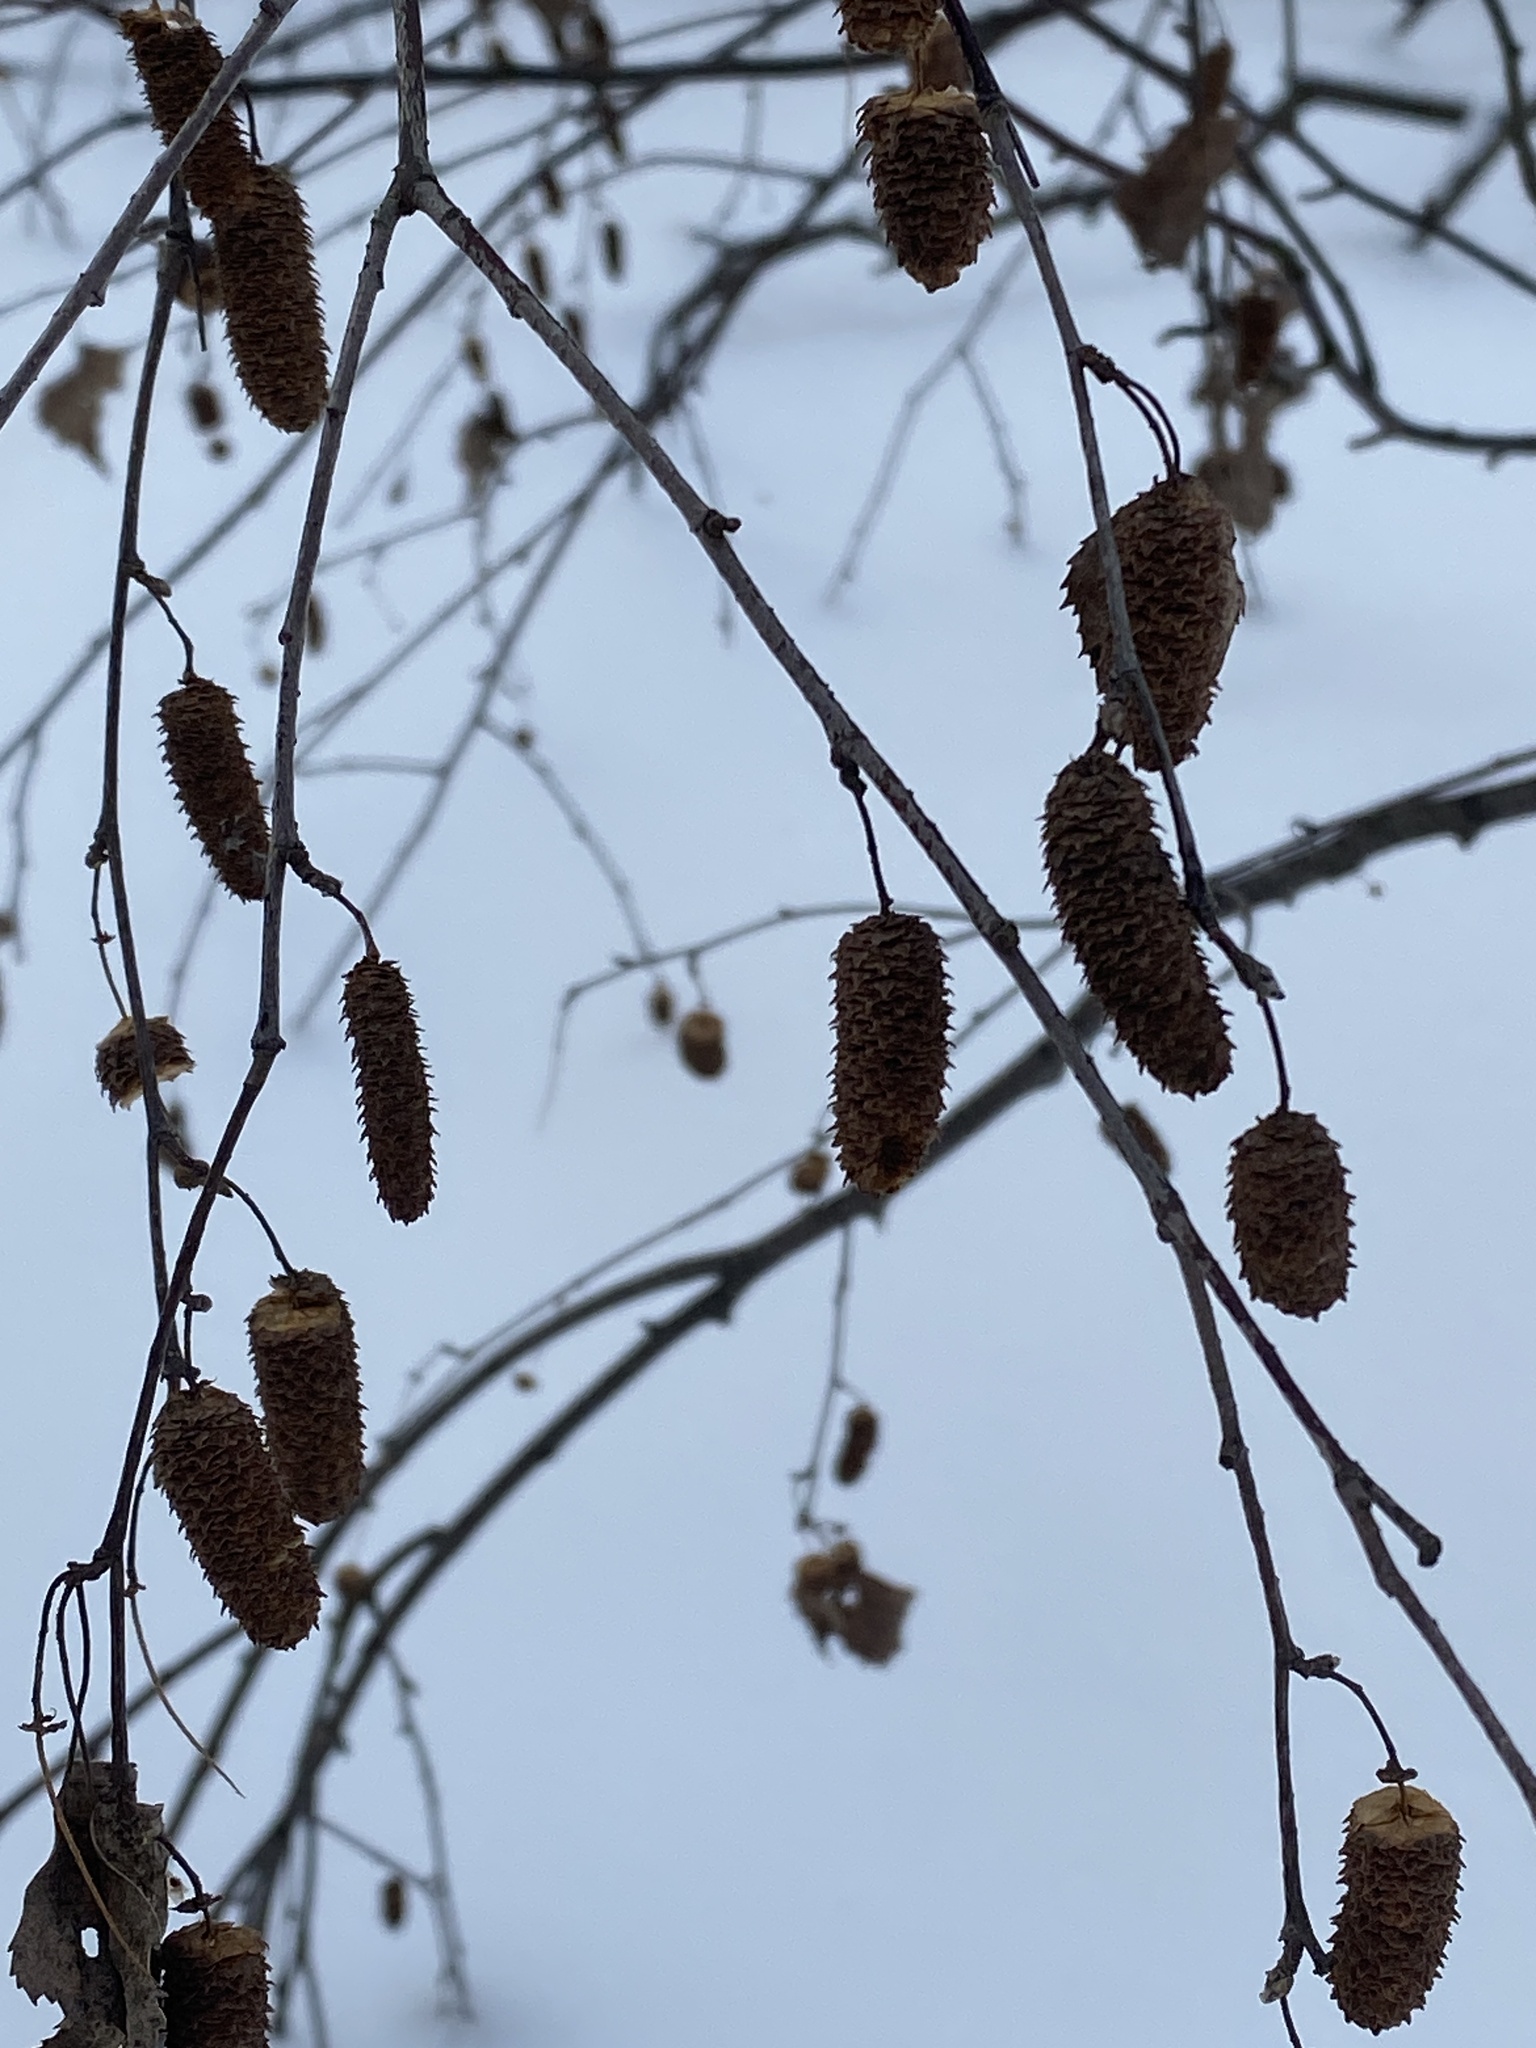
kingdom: Plantae
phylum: Tracheophyta
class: Magnoliopsida
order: Fagales
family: Betulaceae
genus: Betula
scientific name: Betula pendula
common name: Silver birch
